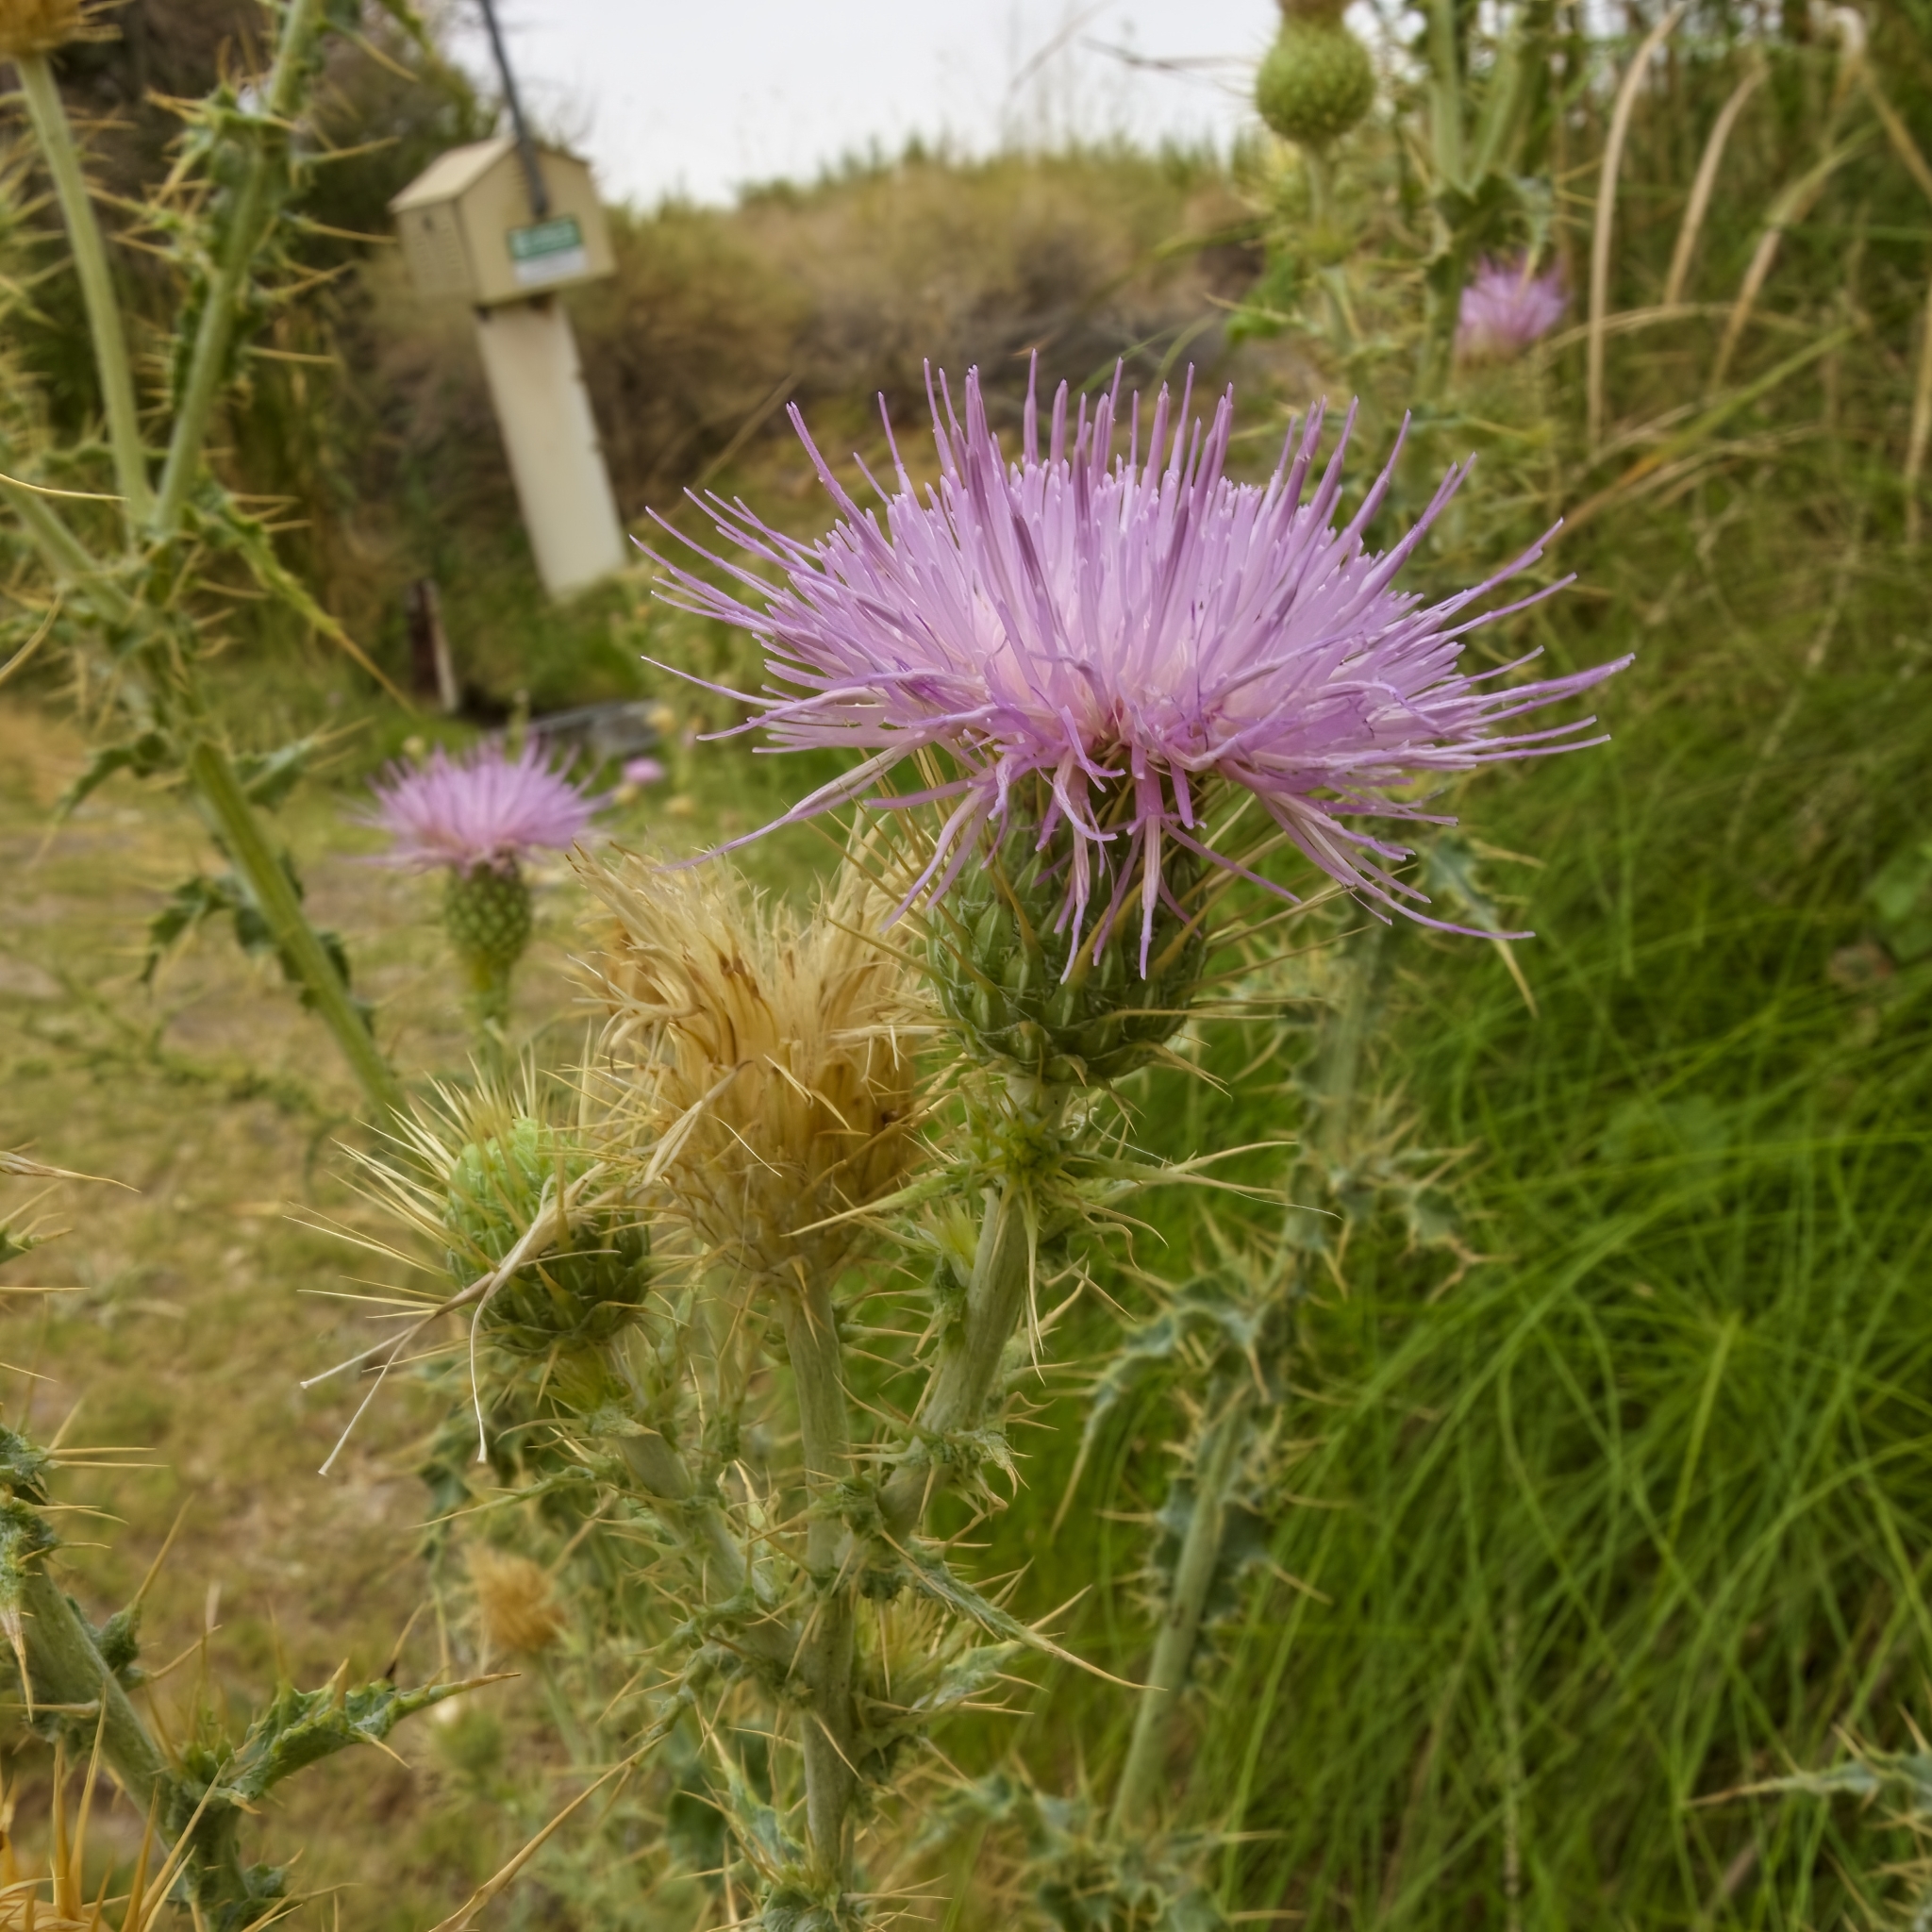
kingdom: Plantae
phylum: Tracheophyta
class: Magnoliopsida
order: Asterales
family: Asteraceae
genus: Cirsium
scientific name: Cirsium mohavense
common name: Mojave thistle
